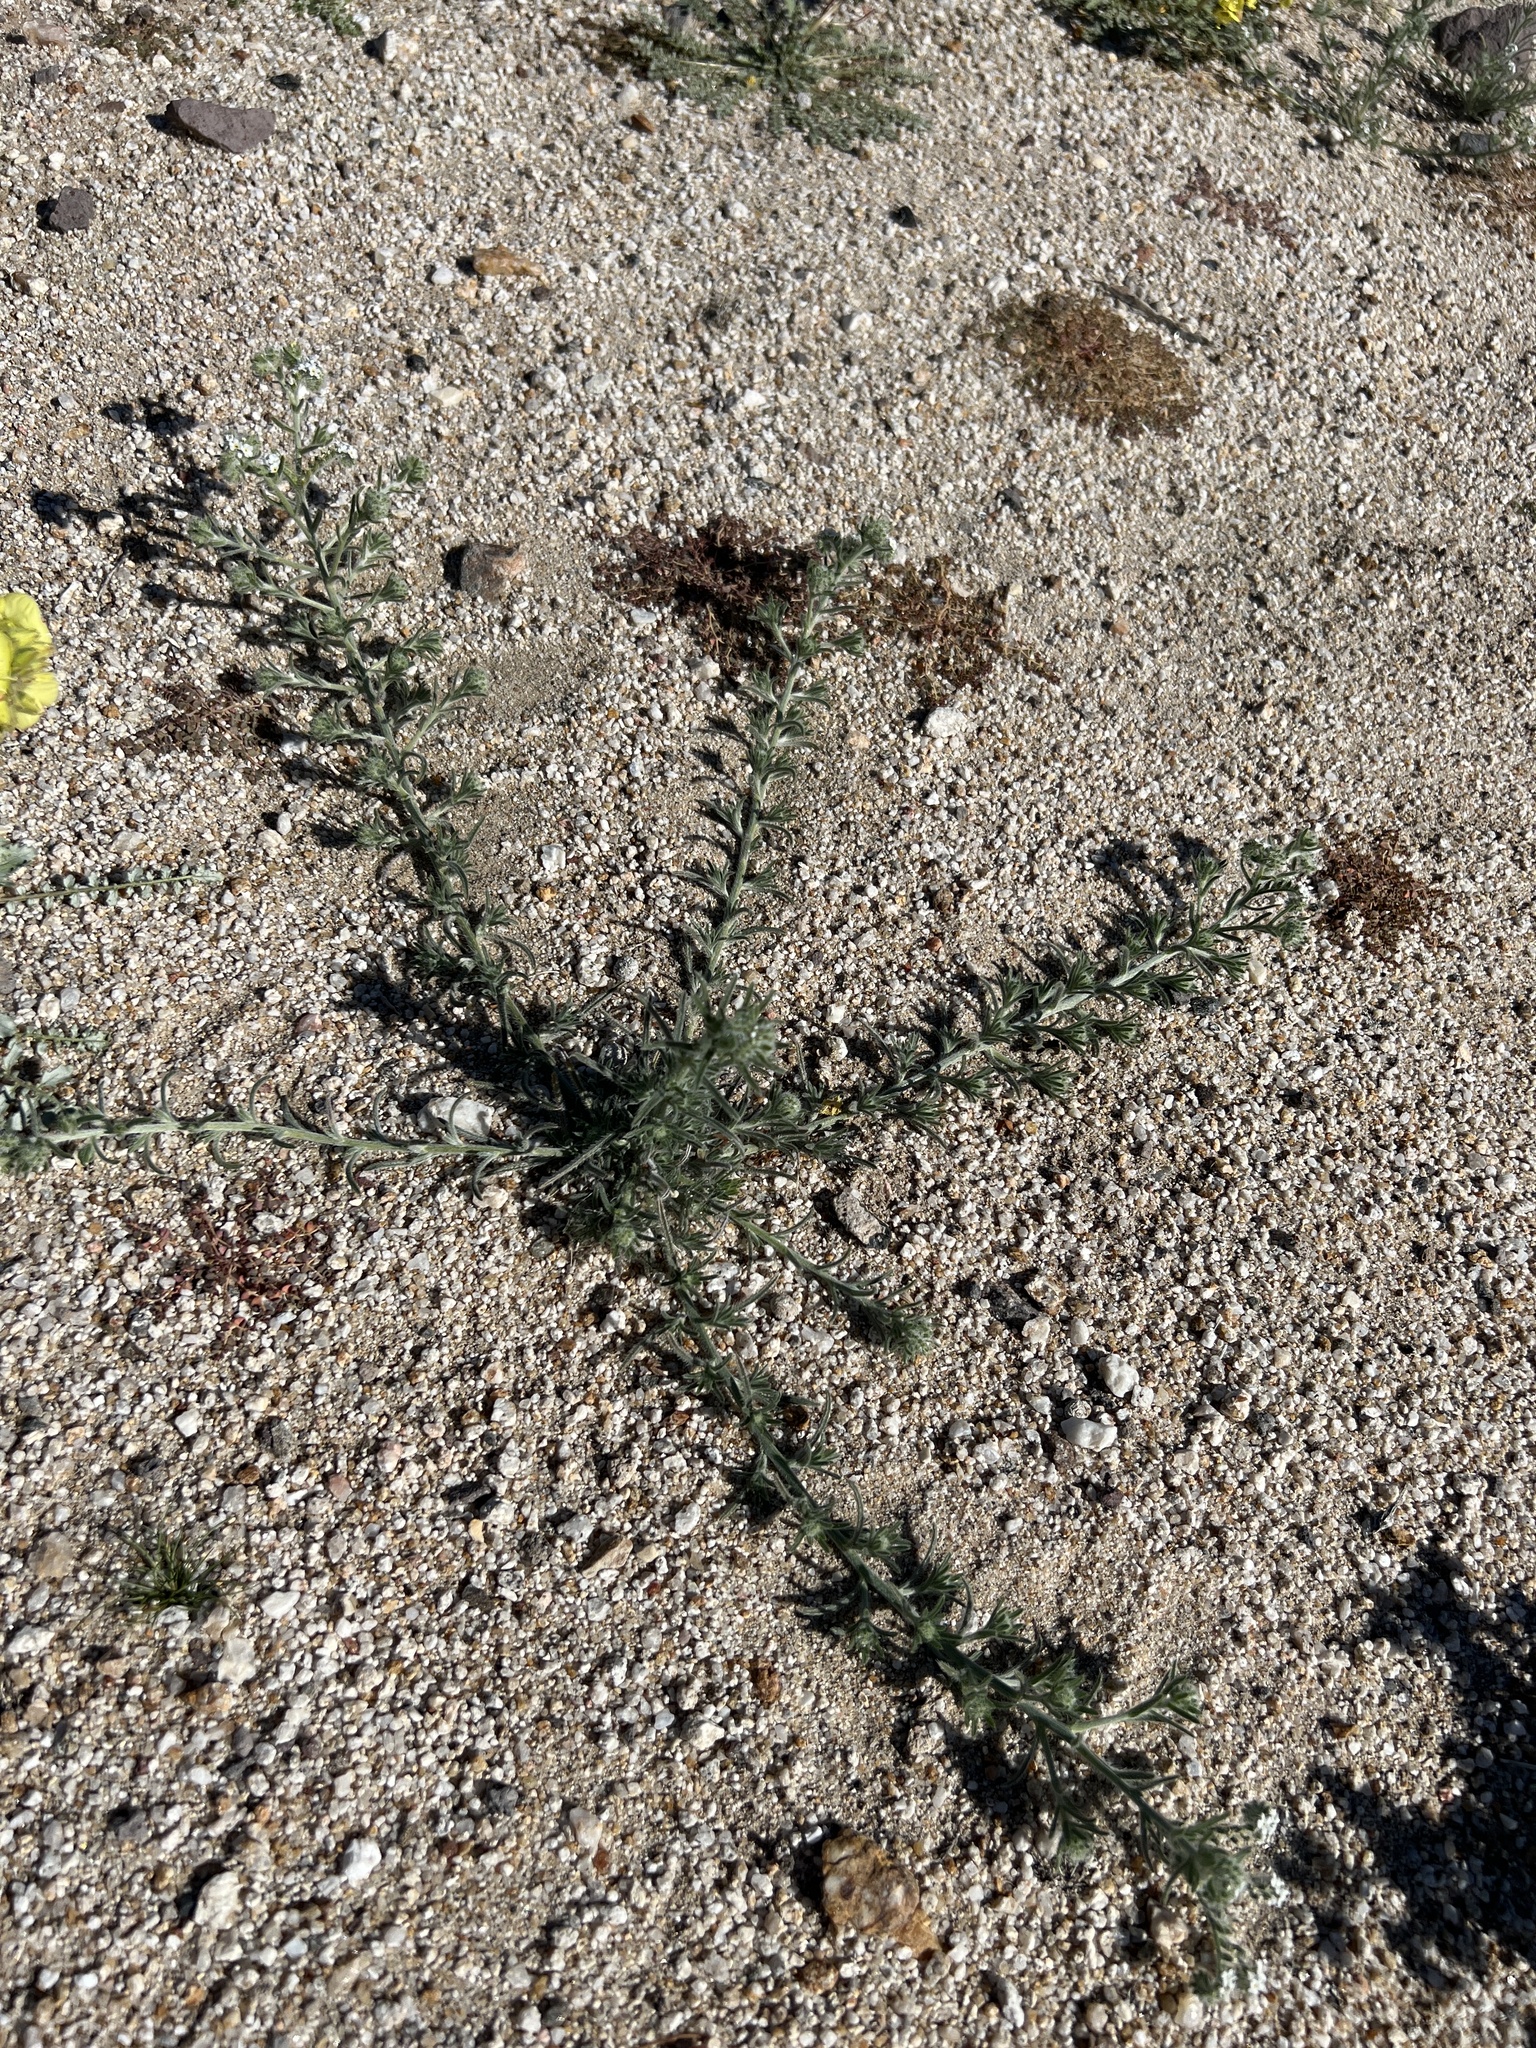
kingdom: Plantae
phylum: Tracheophyta
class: Magnoliopsida
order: Boraginales
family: Boraginaceae
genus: Johnstonella
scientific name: Johnstonella angustifolia
